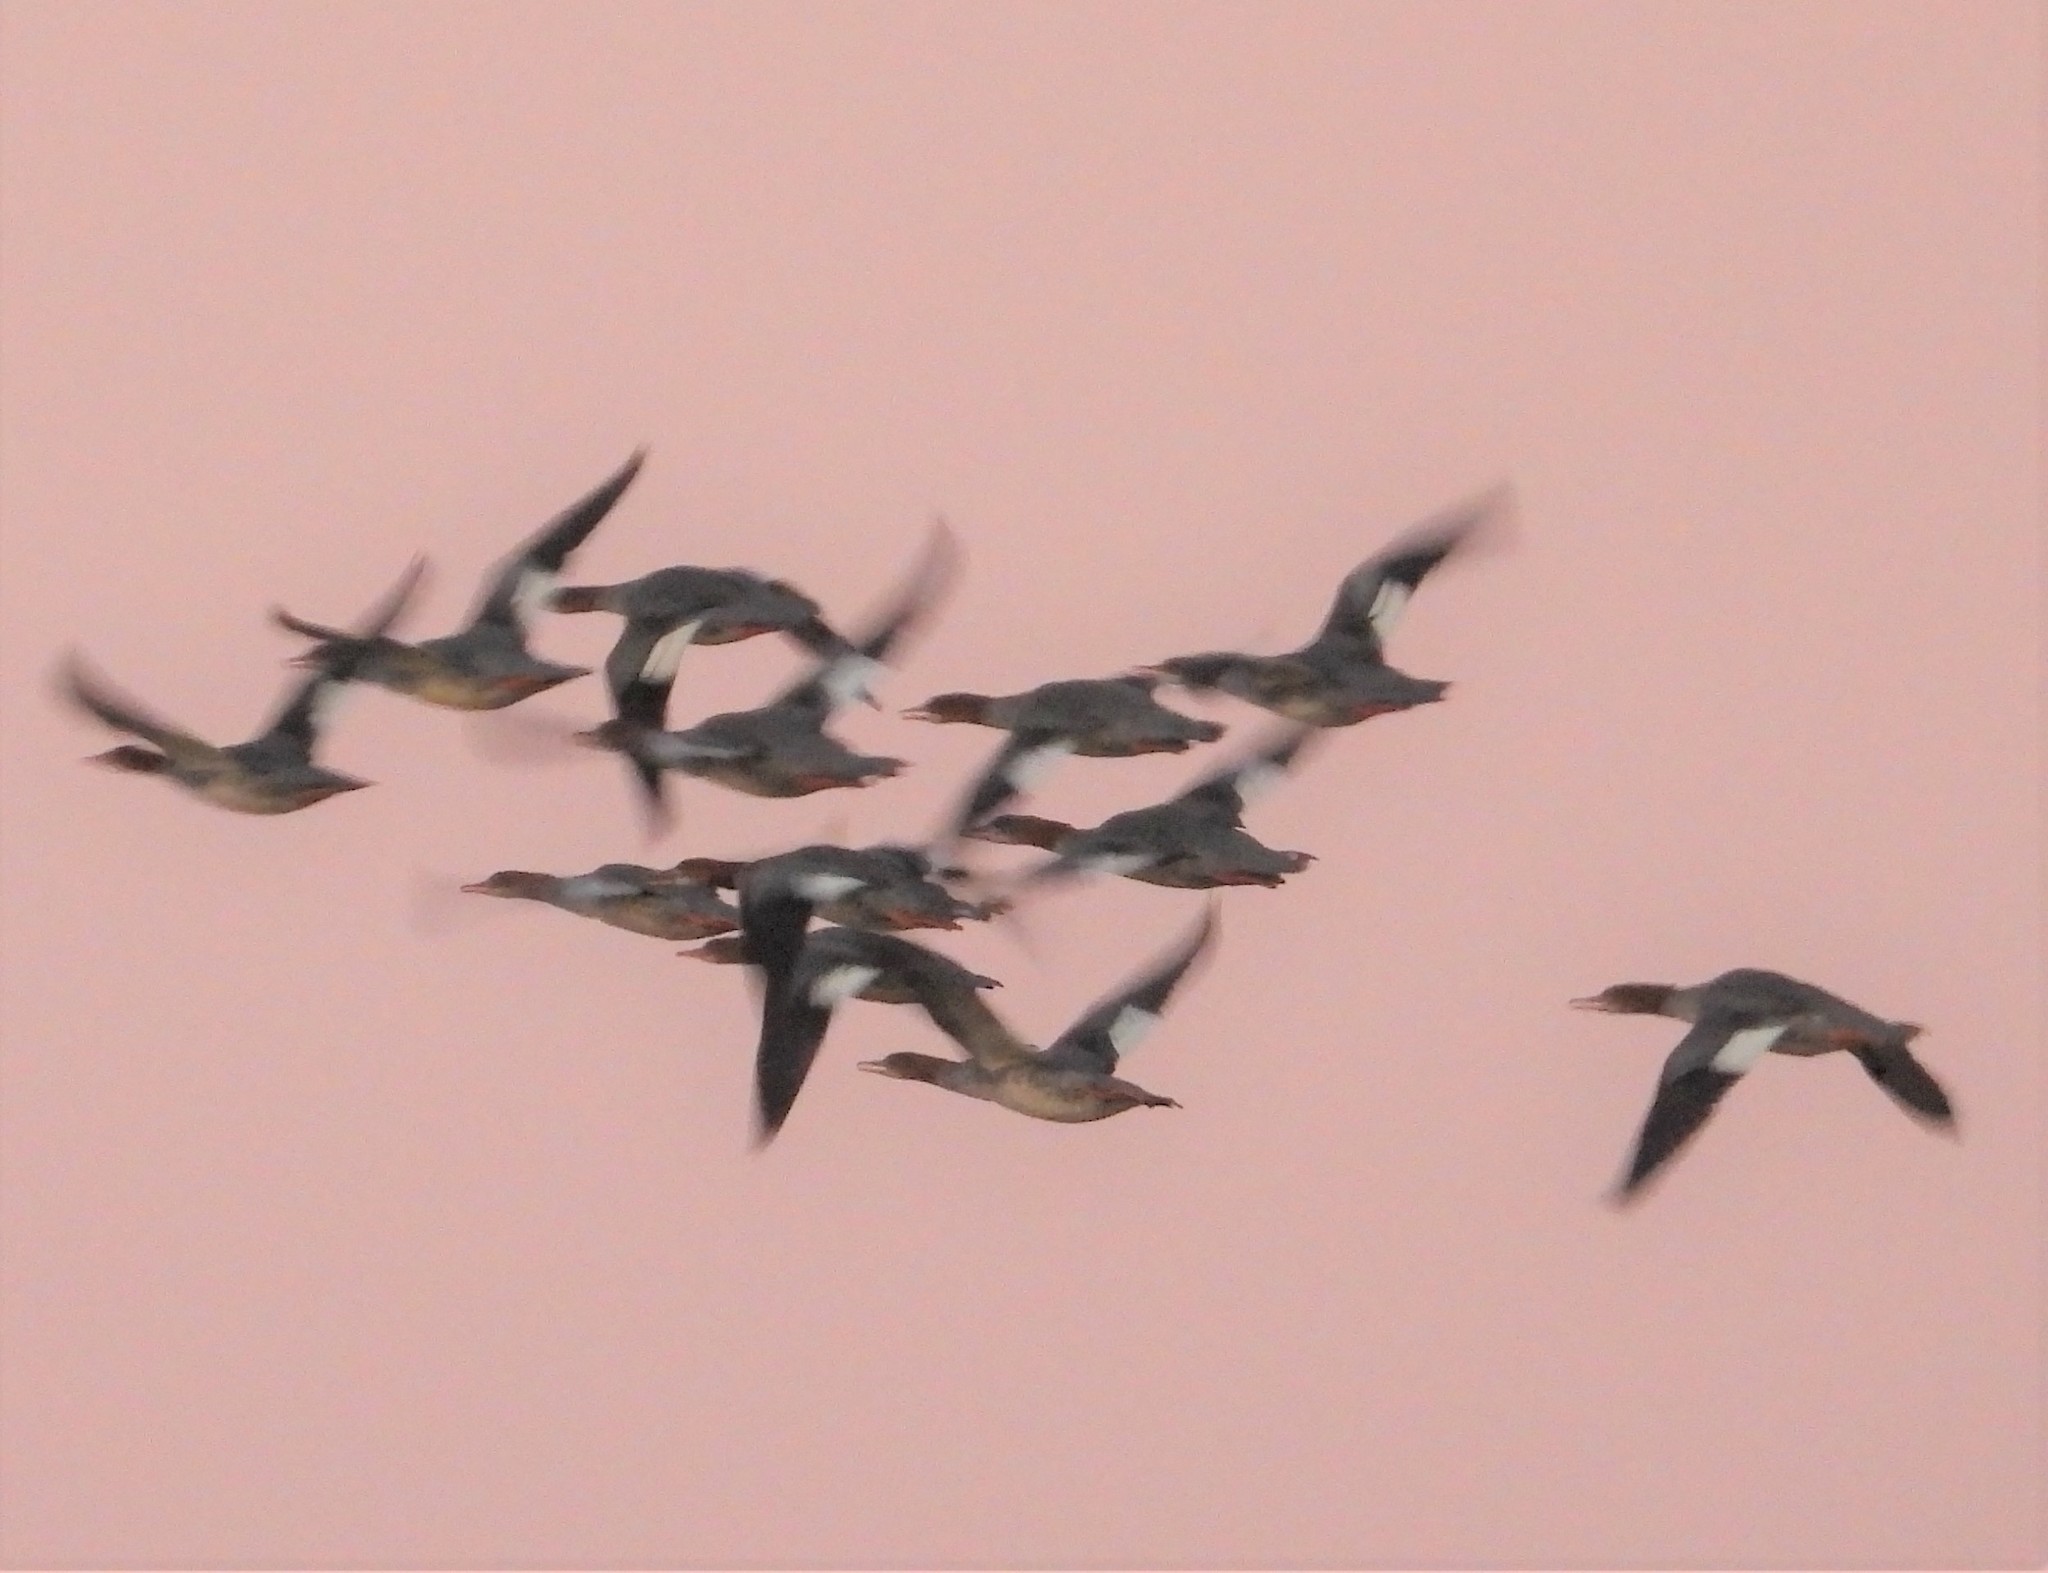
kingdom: Animalia
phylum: Chordata
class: Aves
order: Anseriformes
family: Anatidae
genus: Mergus
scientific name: Mergus merganser
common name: Common merganser
